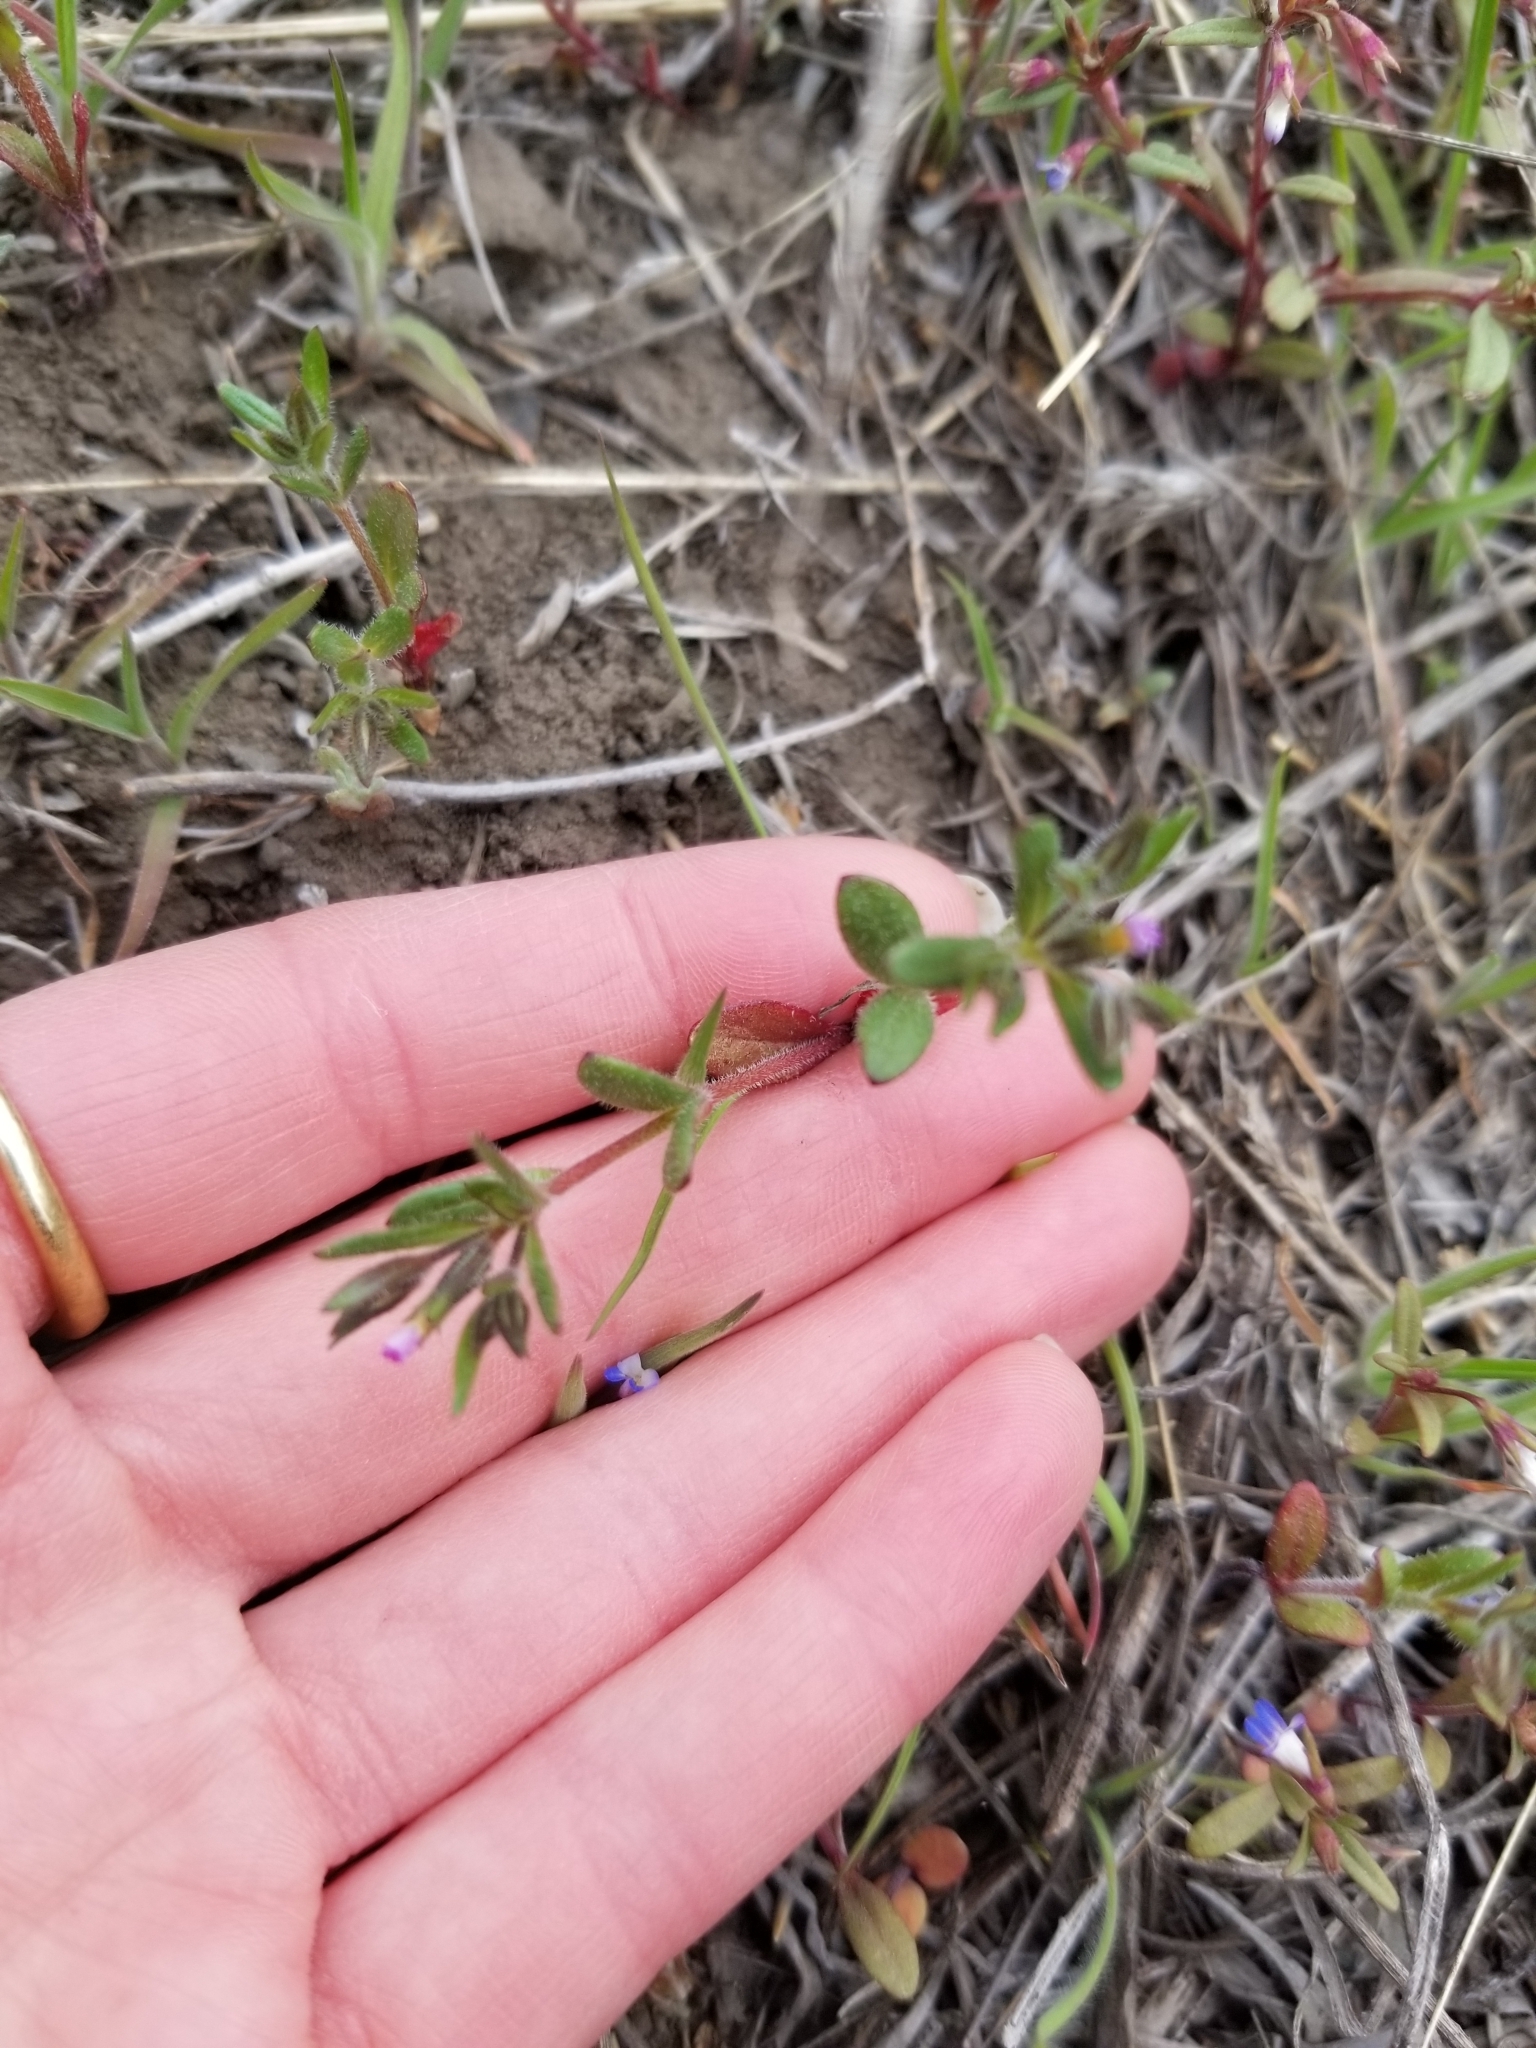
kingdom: Plantae
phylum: Tracheophyta
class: Magnoliopsida
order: Ericales
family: Polemoniaceae
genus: Phlox
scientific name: Phlox gracilis
